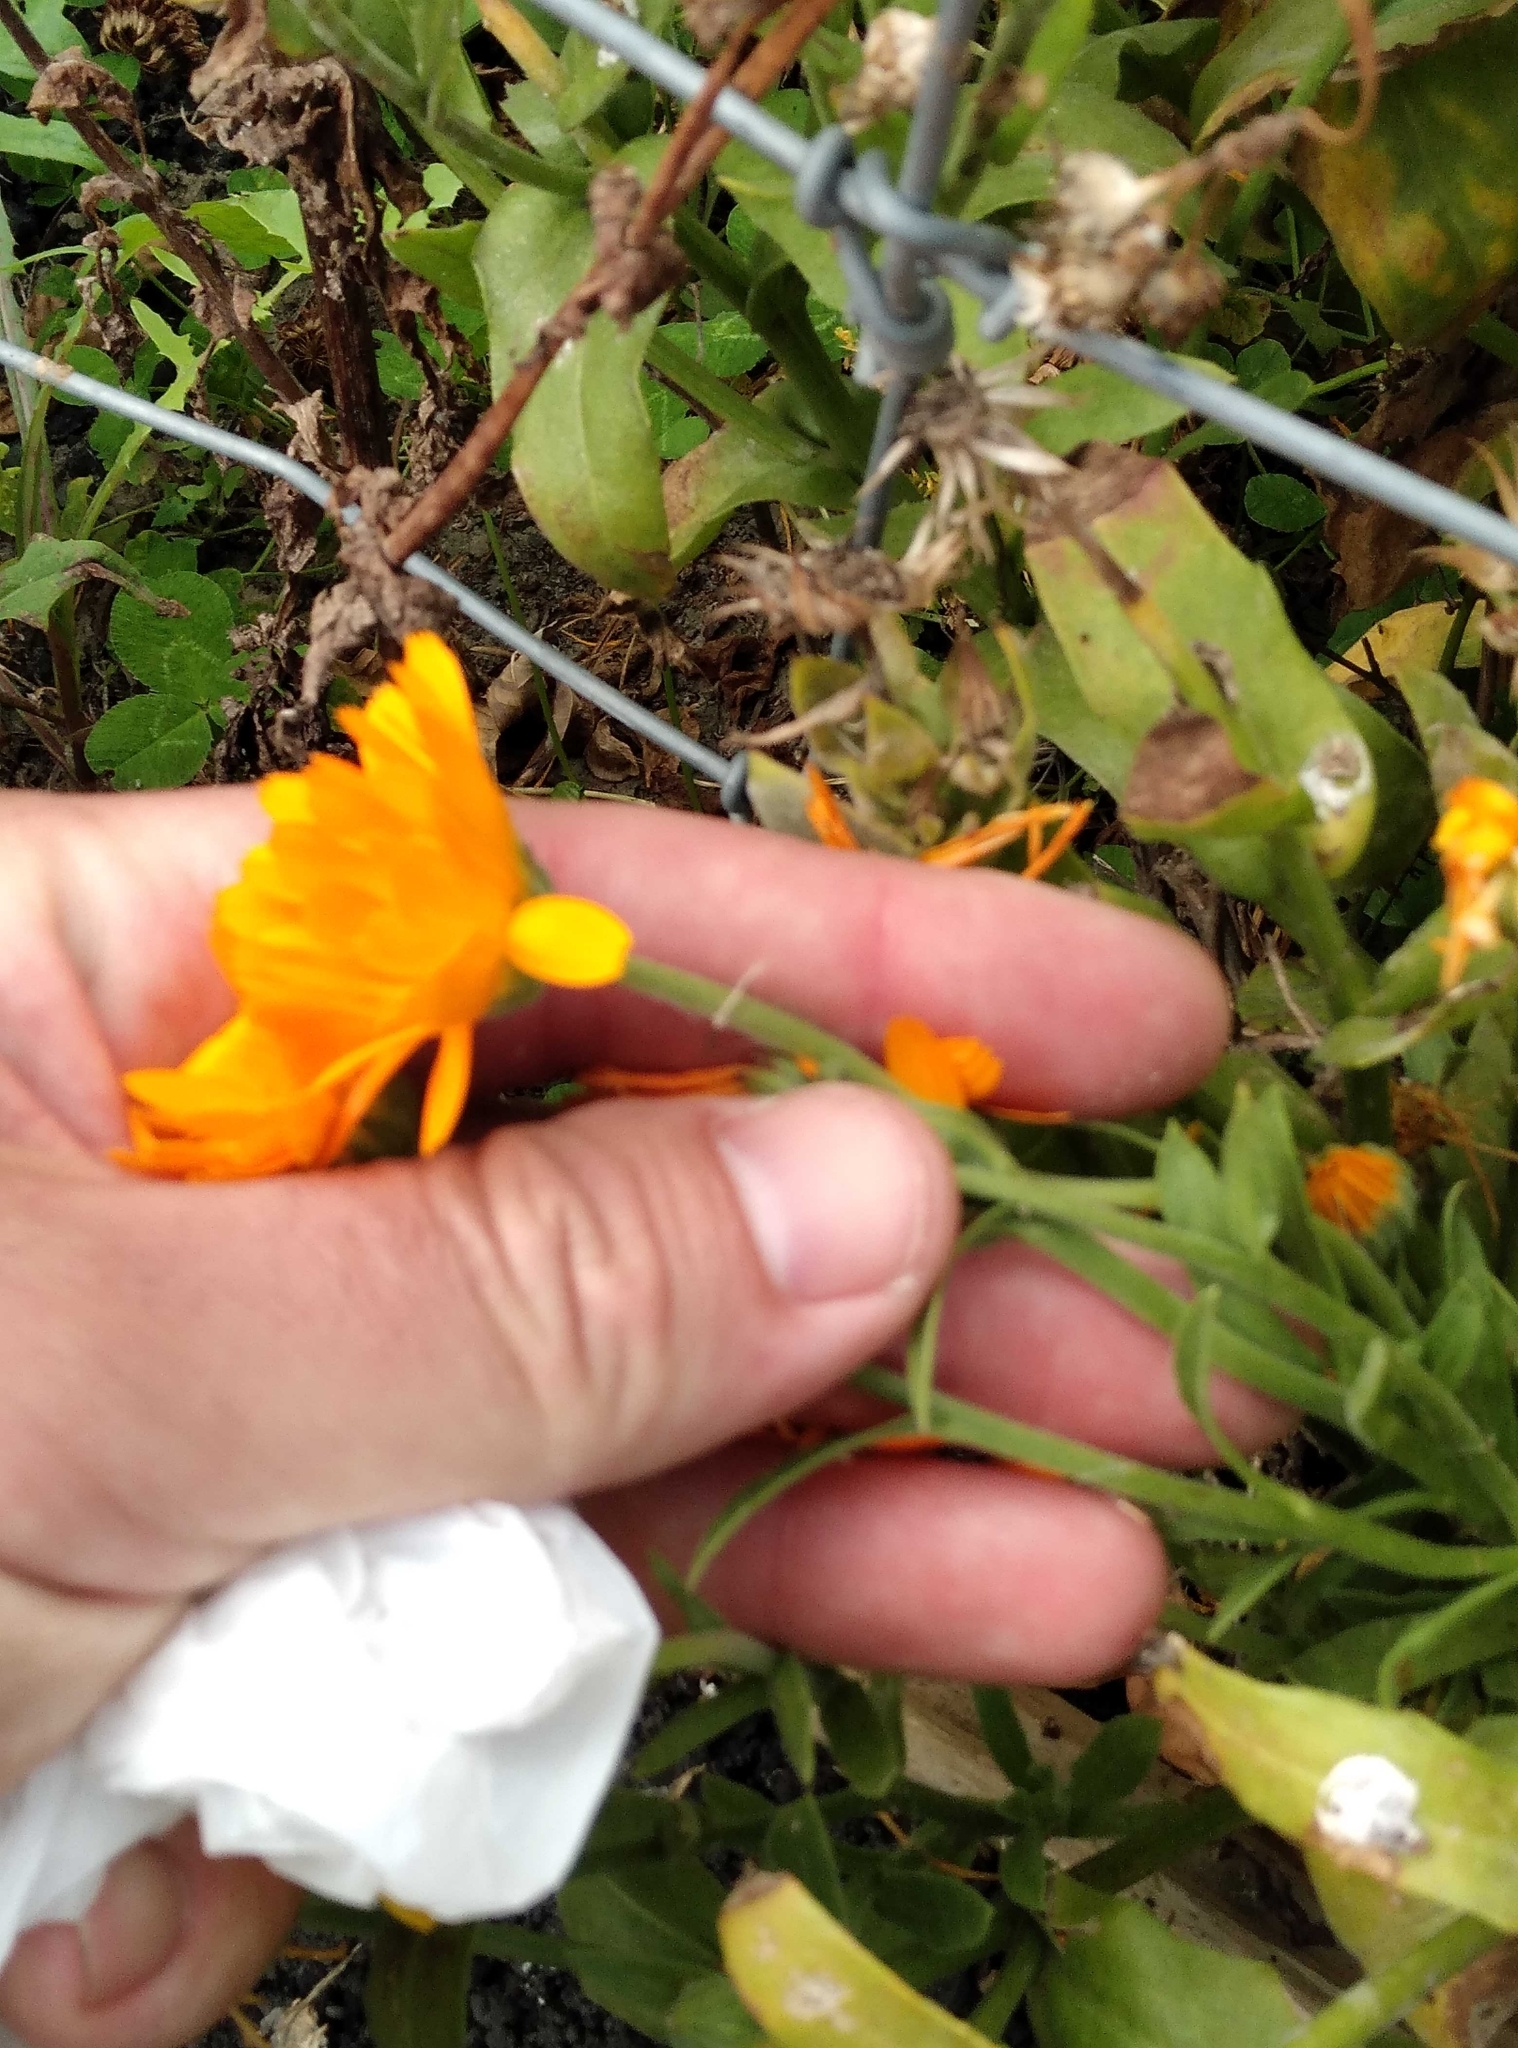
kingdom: Plantae
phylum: Tracheophyta
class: Magnoliopsida
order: Asterales
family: Asteraceae
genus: Calendula
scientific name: Calendula officinalis
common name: Pot marigold
